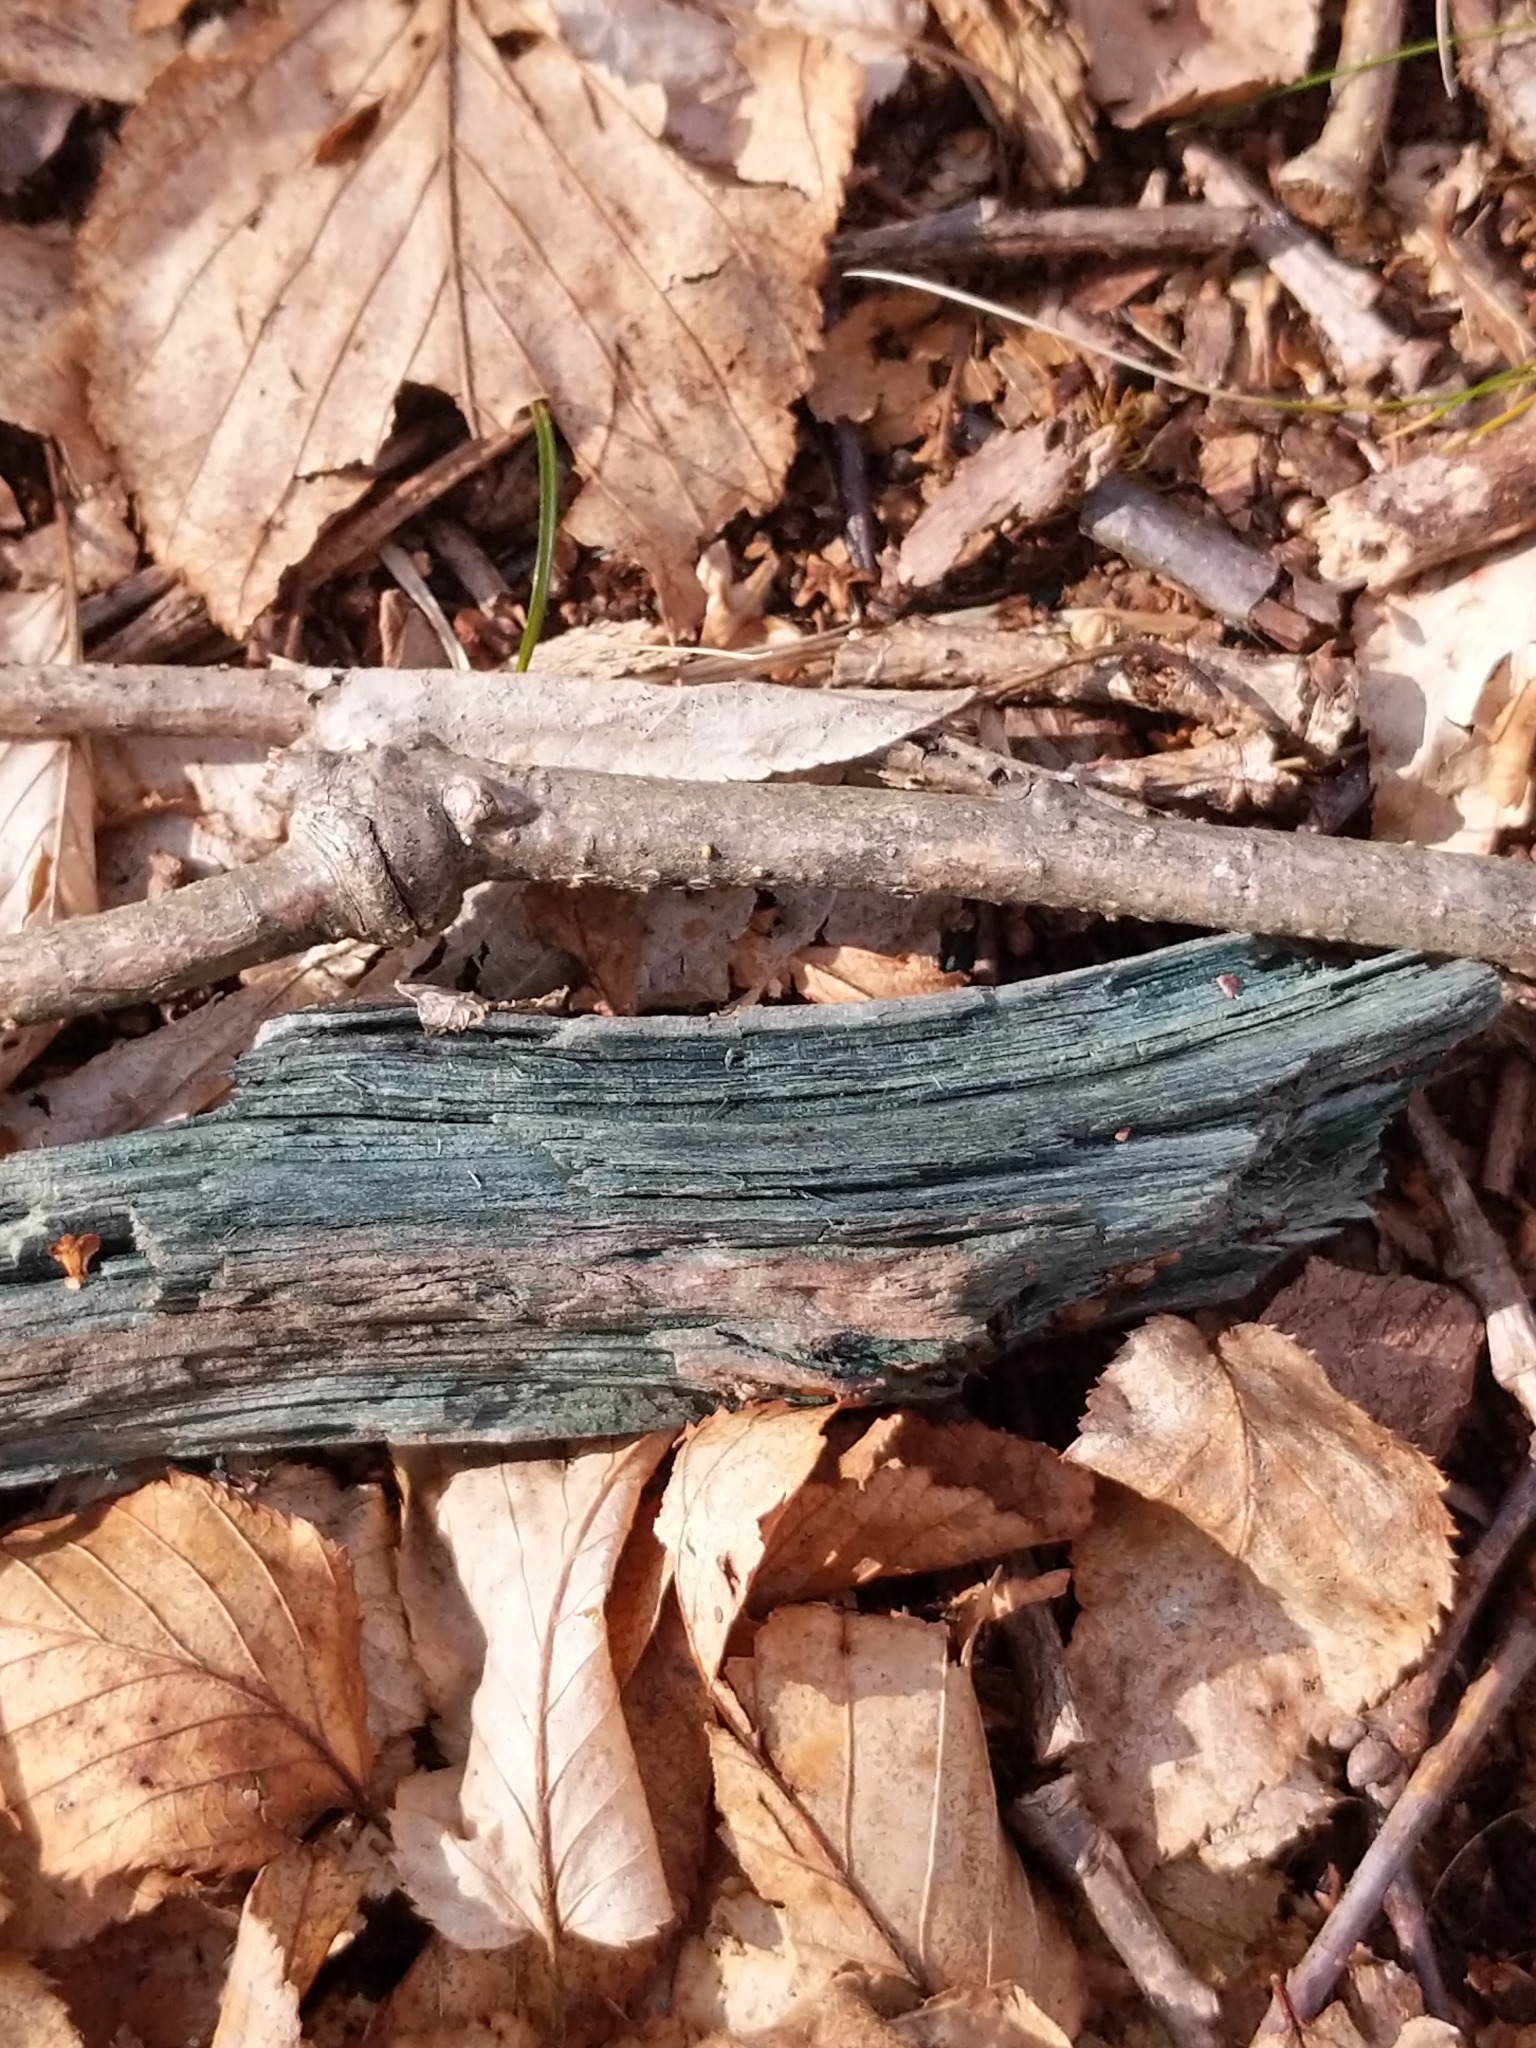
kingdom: Fungi
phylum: Ascomycota
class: Leotiomycetes
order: Helotiales
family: Chlorociboriaceae
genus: Chlorociboria
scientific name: Chlorociboria
